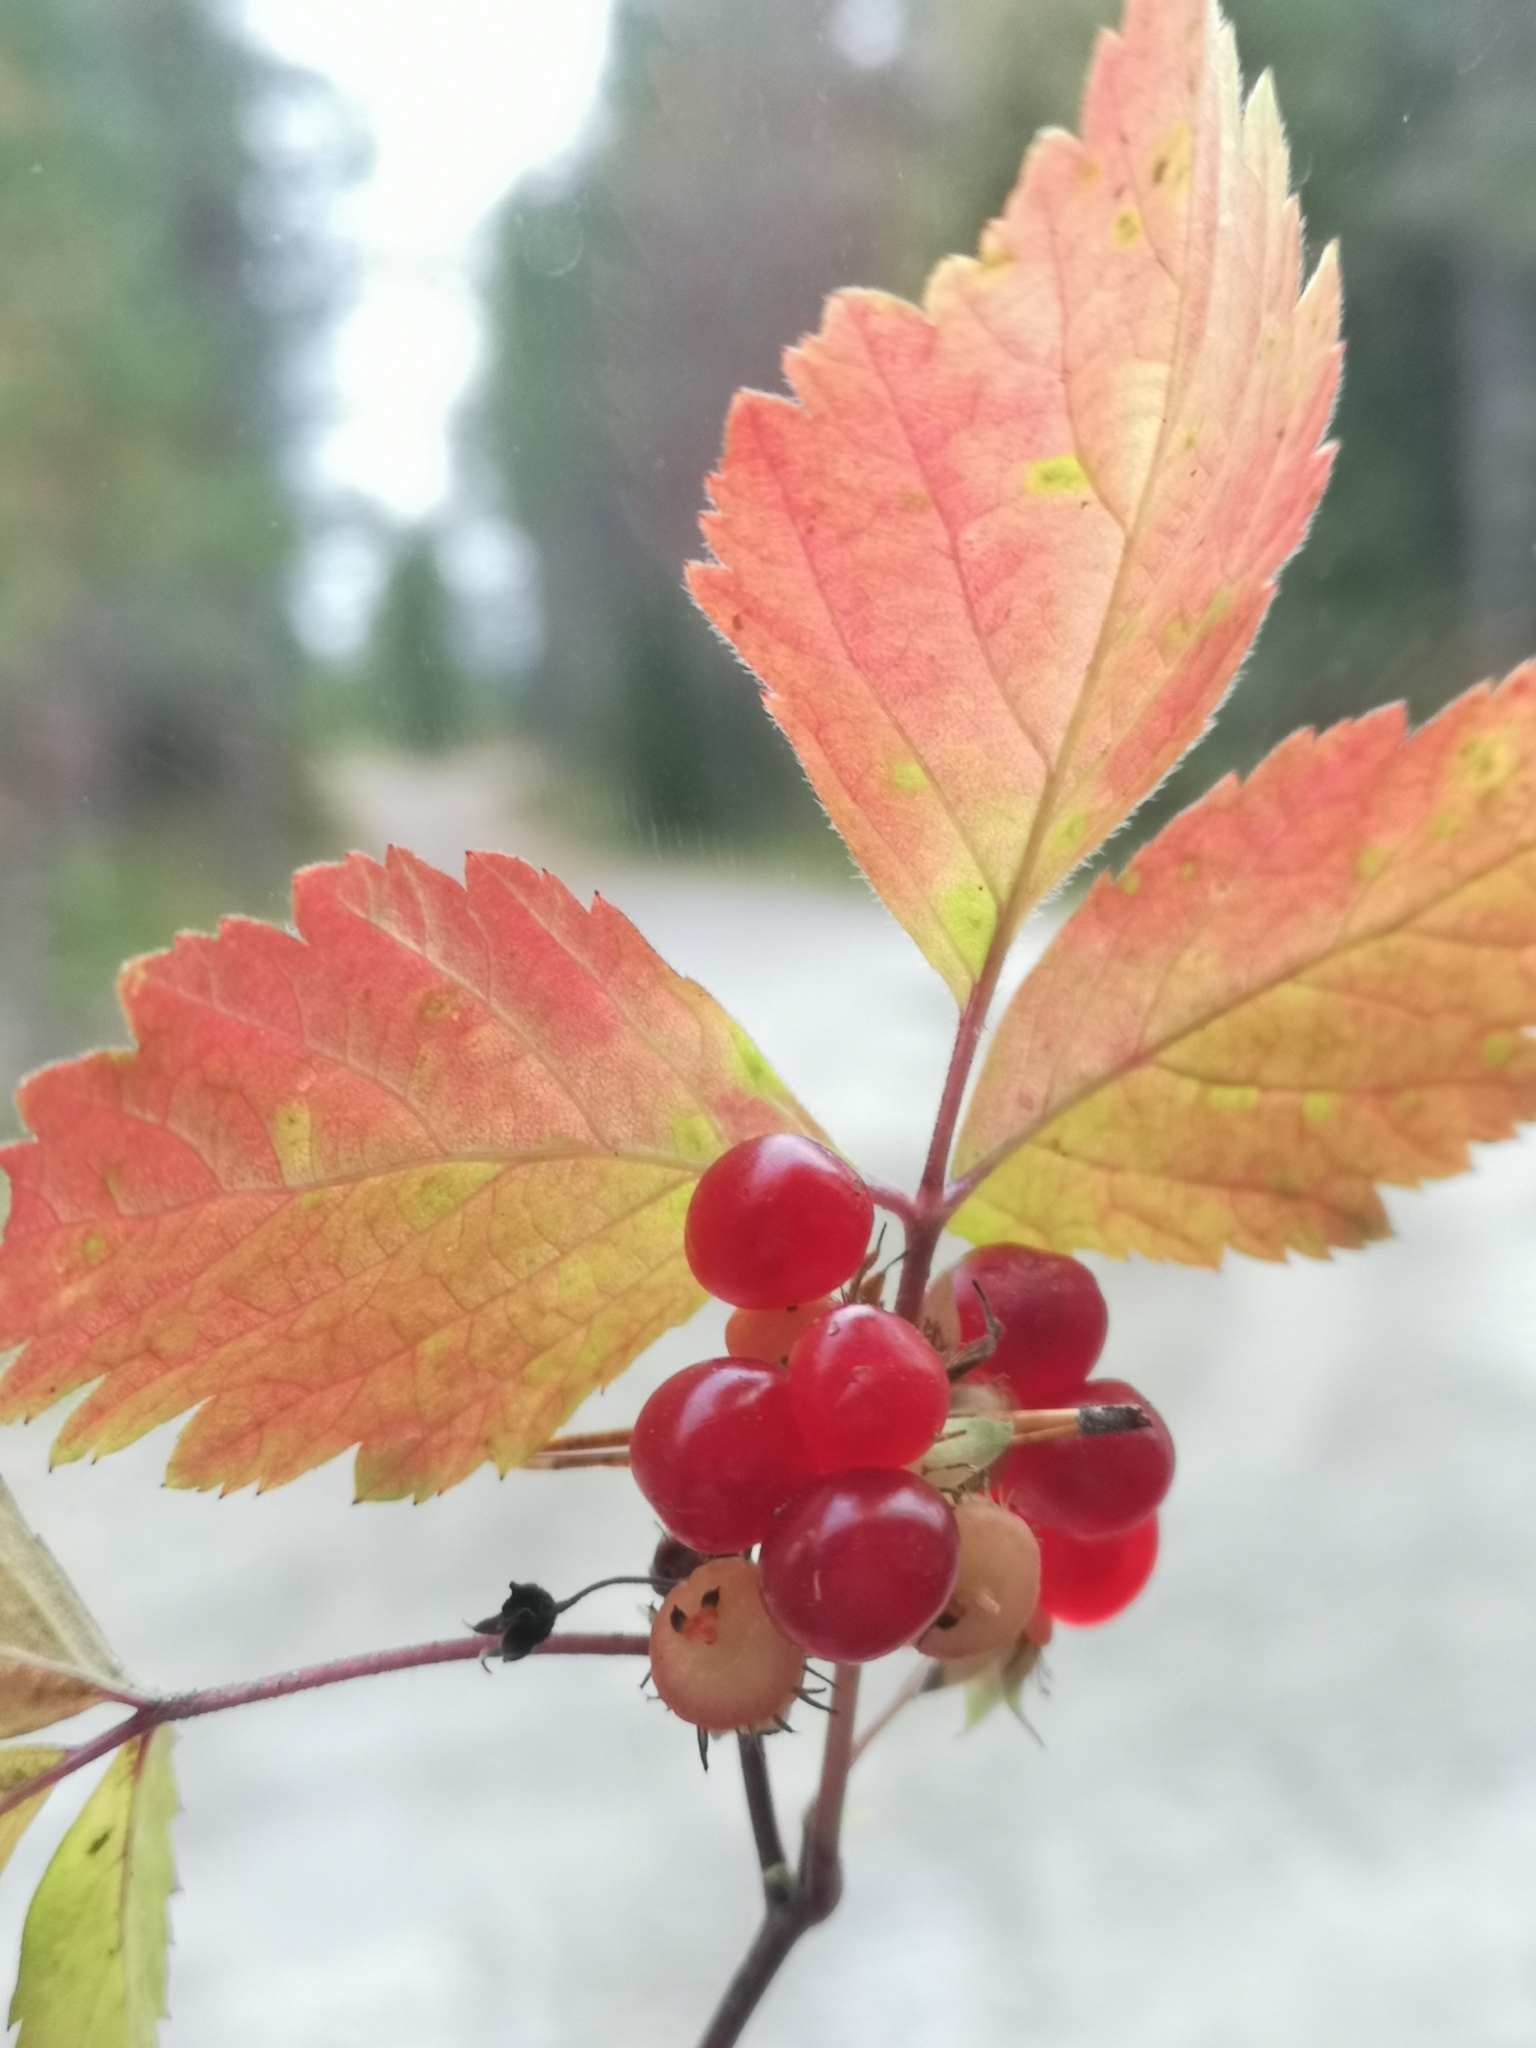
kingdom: Plantae
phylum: Tracheophyta
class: Magnoliopsida
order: Rosales
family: Rosaceae
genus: Rubus
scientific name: Rubus saxatilis
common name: Stone bramble
